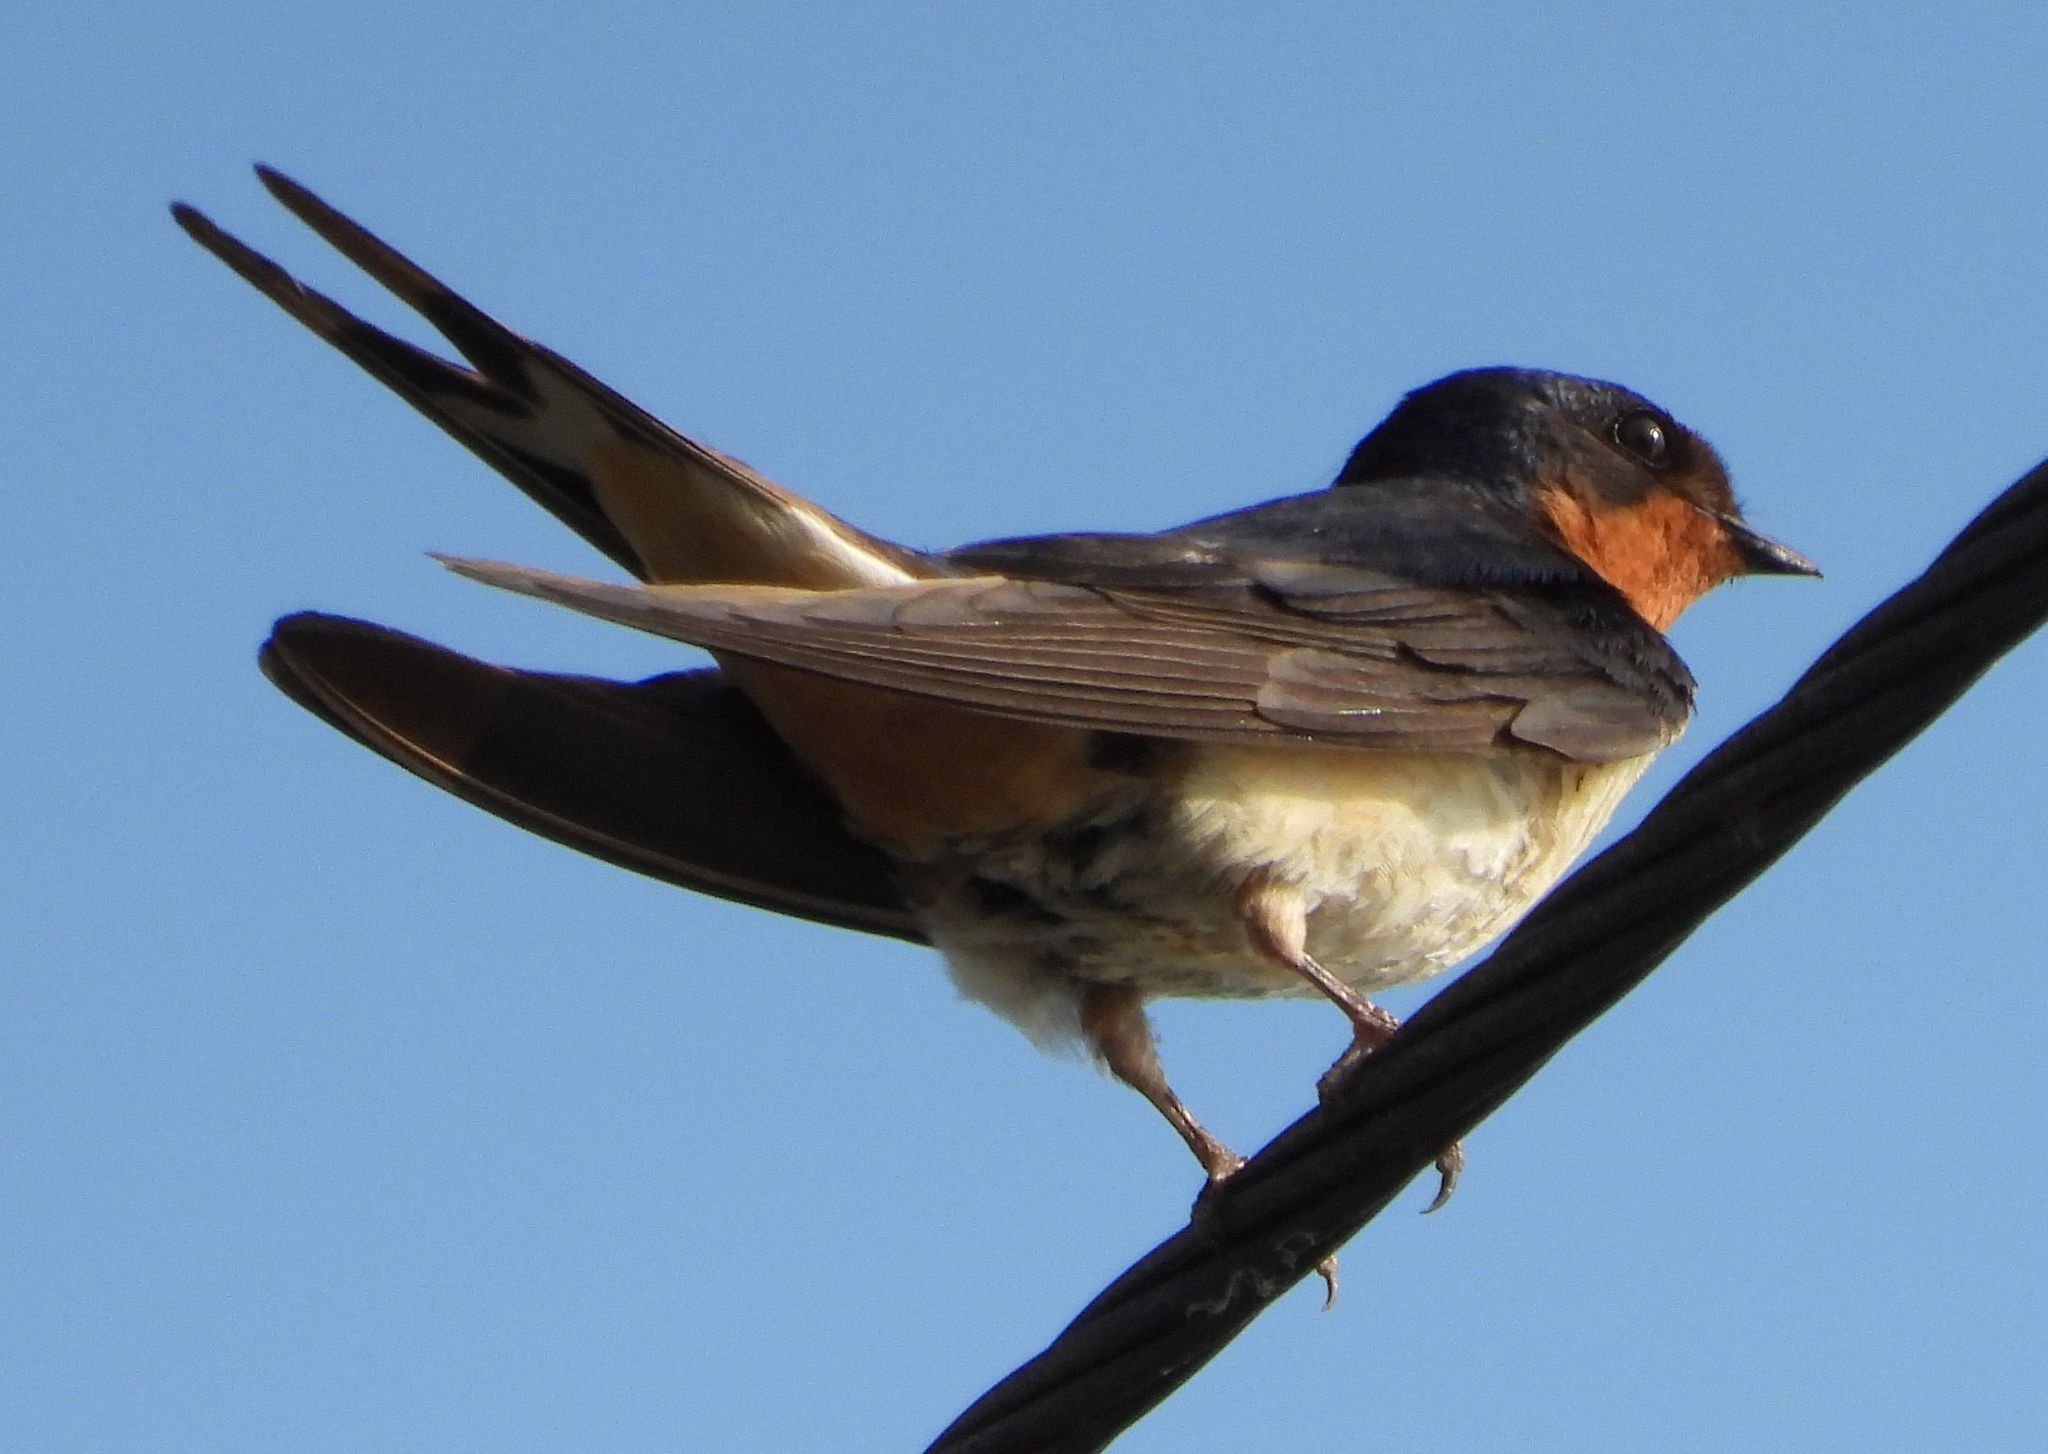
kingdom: Animalia
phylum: Chordata
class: Aves
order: Passeriformes
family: Hirundinidae
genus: Hirundo
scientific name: Hirundo rustica
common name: Barn swallow
